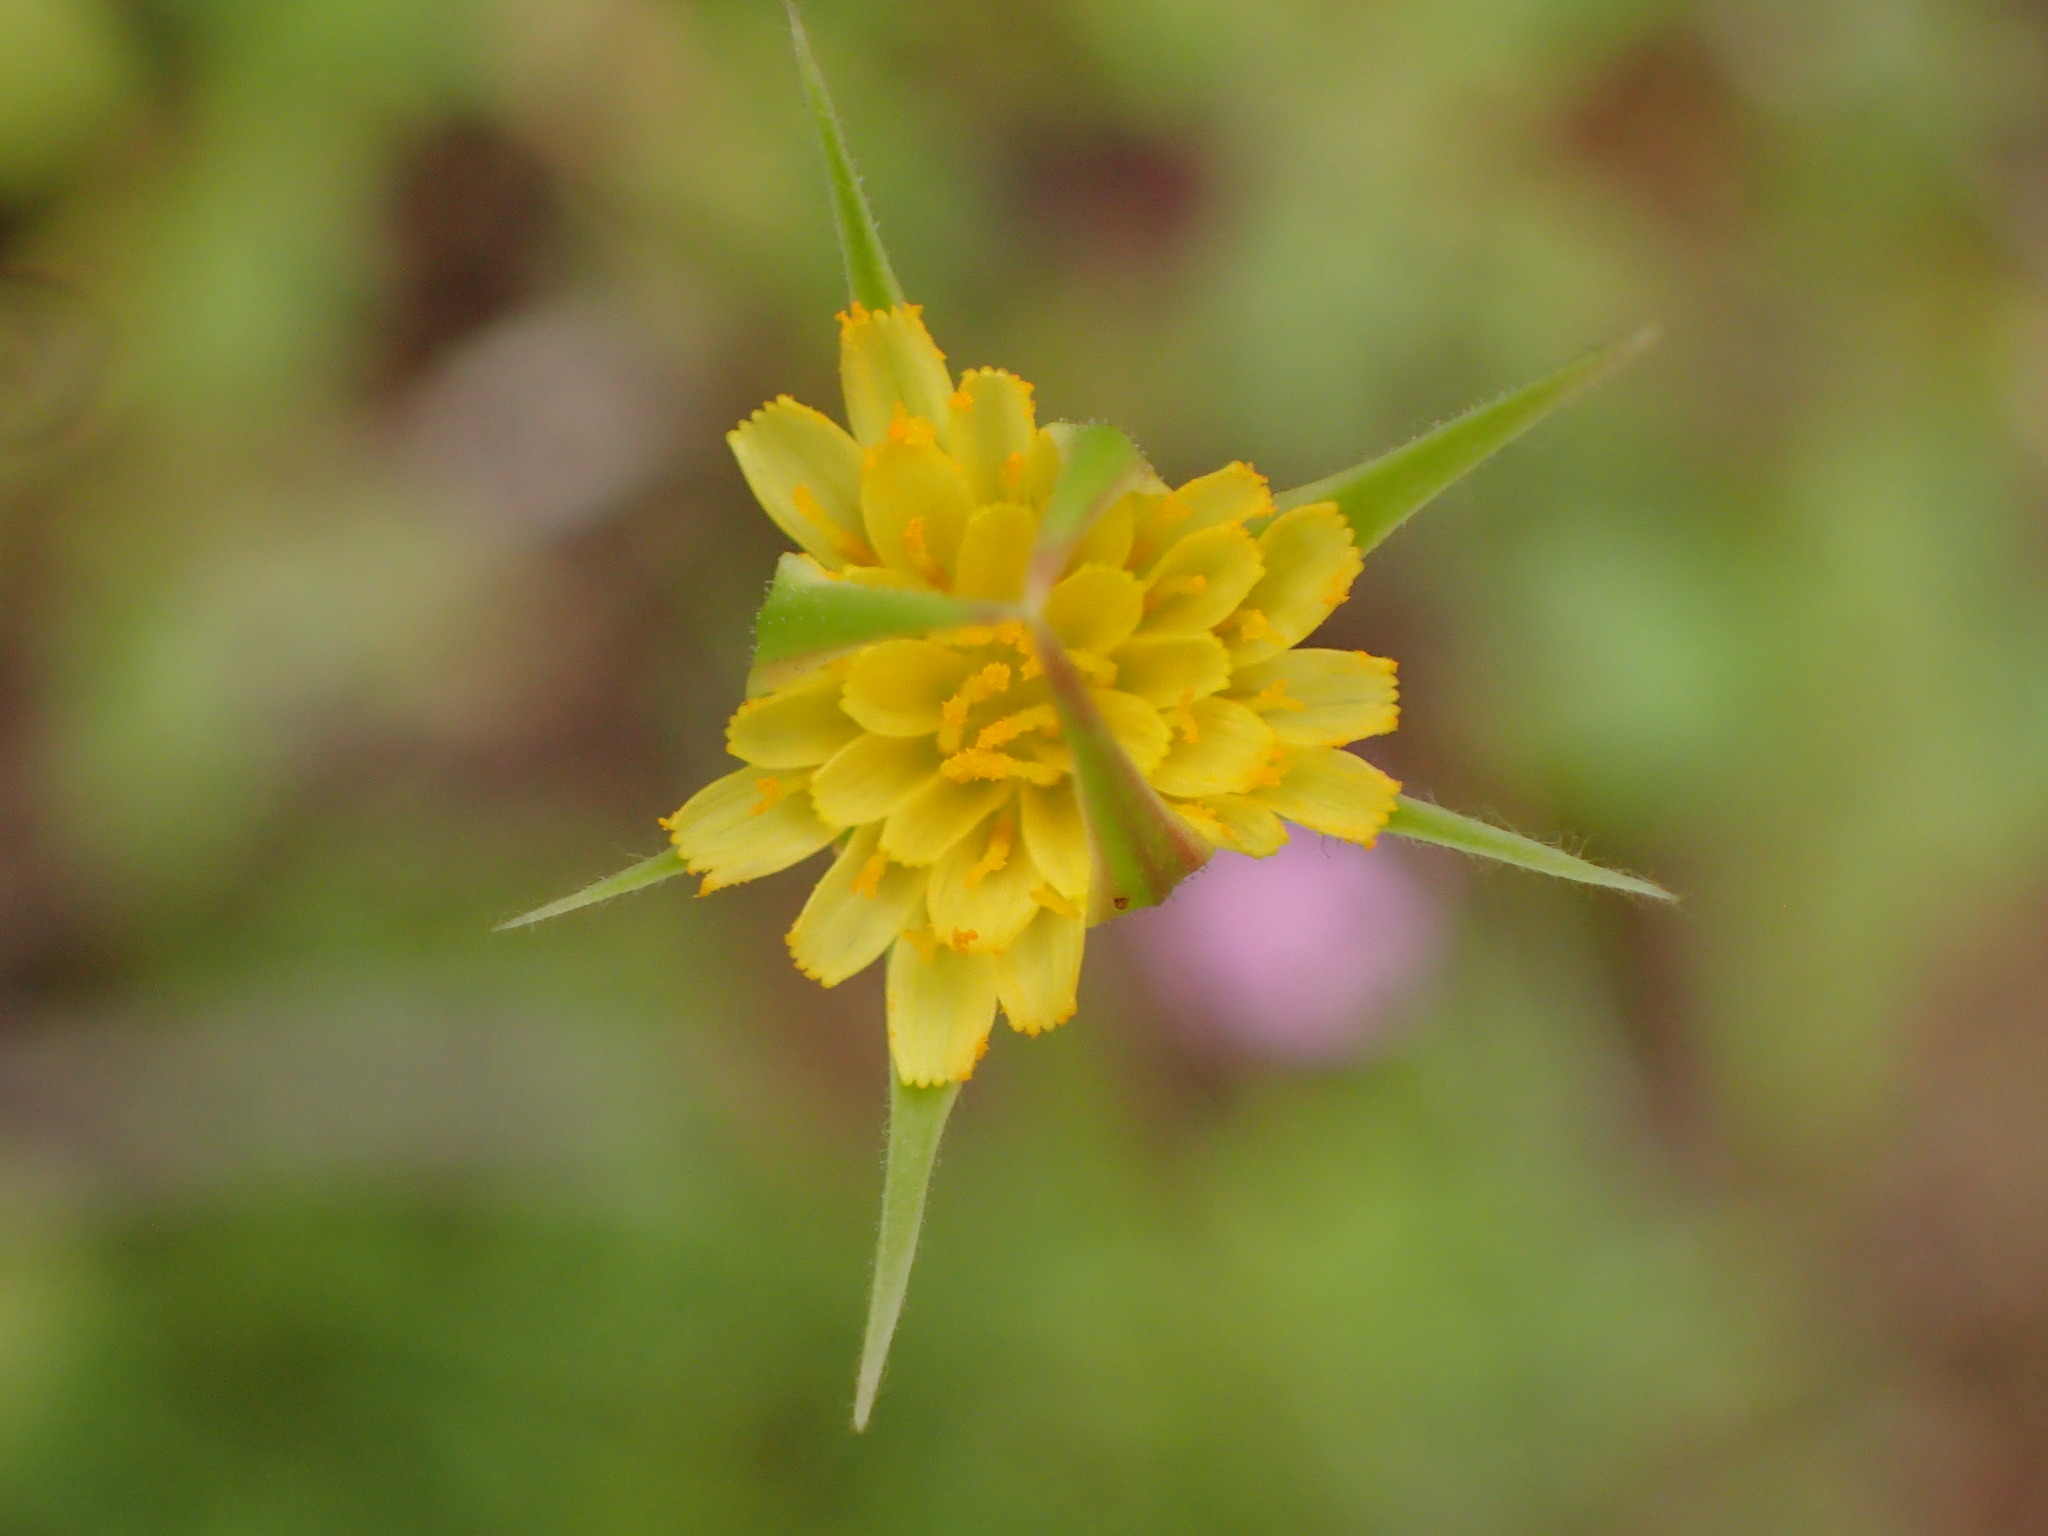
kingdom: Plantae
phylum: Tracheophyta
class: Magnoliopsida
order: Asterales
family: Asteraceae
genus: Microseris
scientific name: Microseris lindleyi
